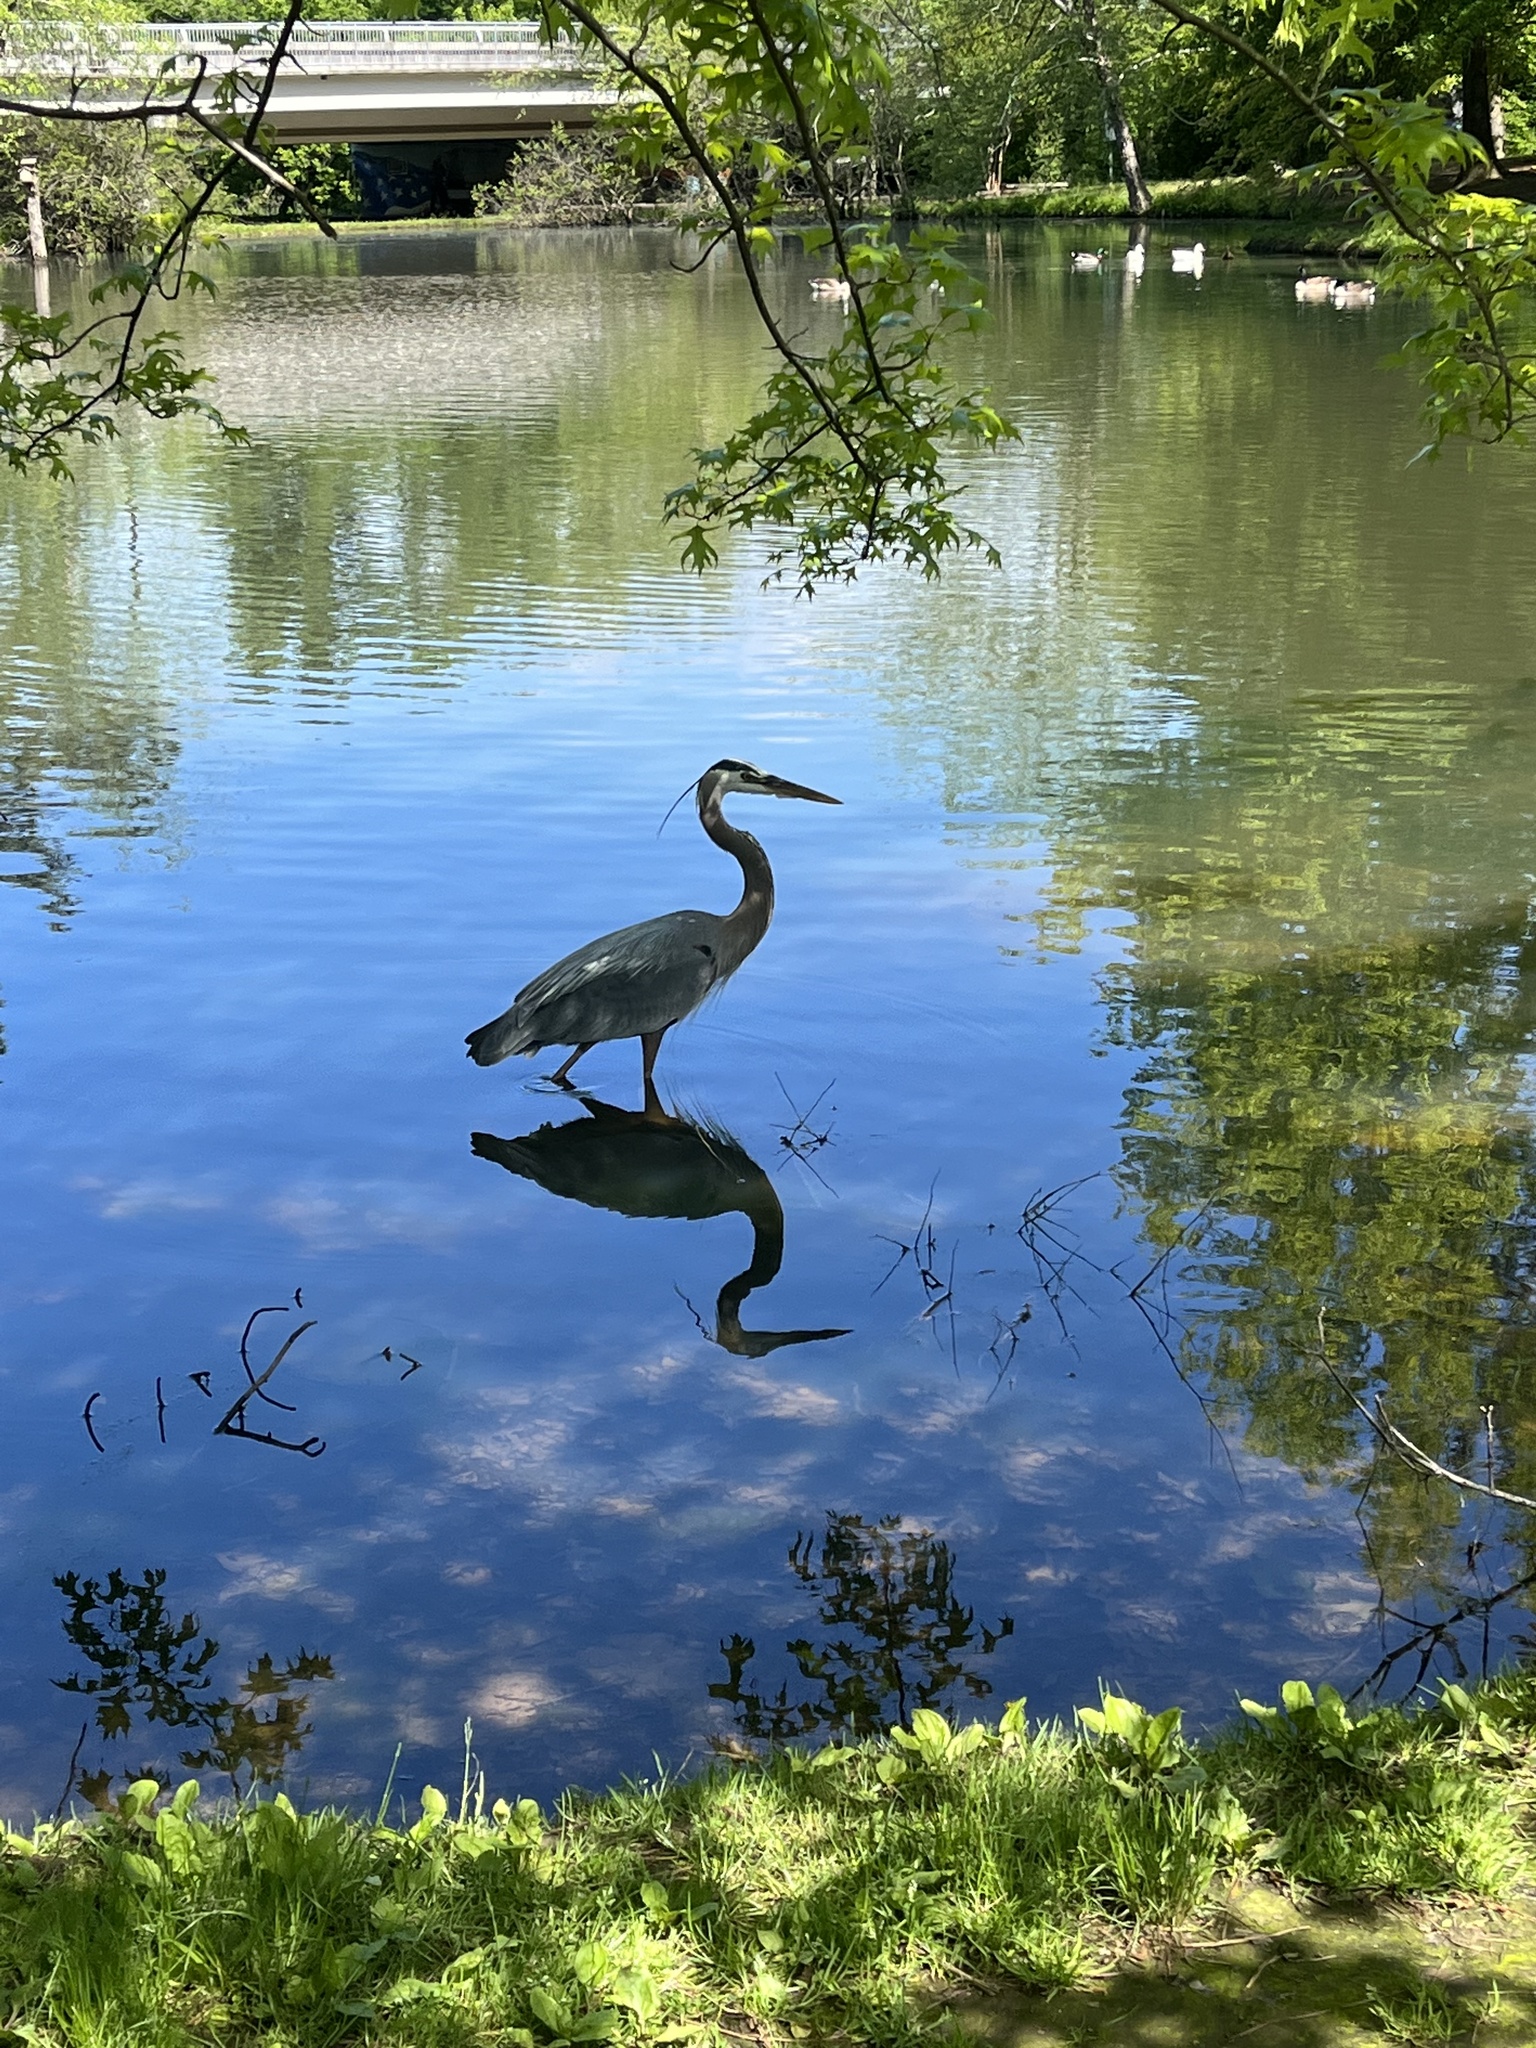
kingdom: Animalia
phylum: Chordata
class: Aves
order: Pelecaniformes
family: Ardeidae
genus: Ardea
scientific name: Ardea herodias
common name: Great blue heron
